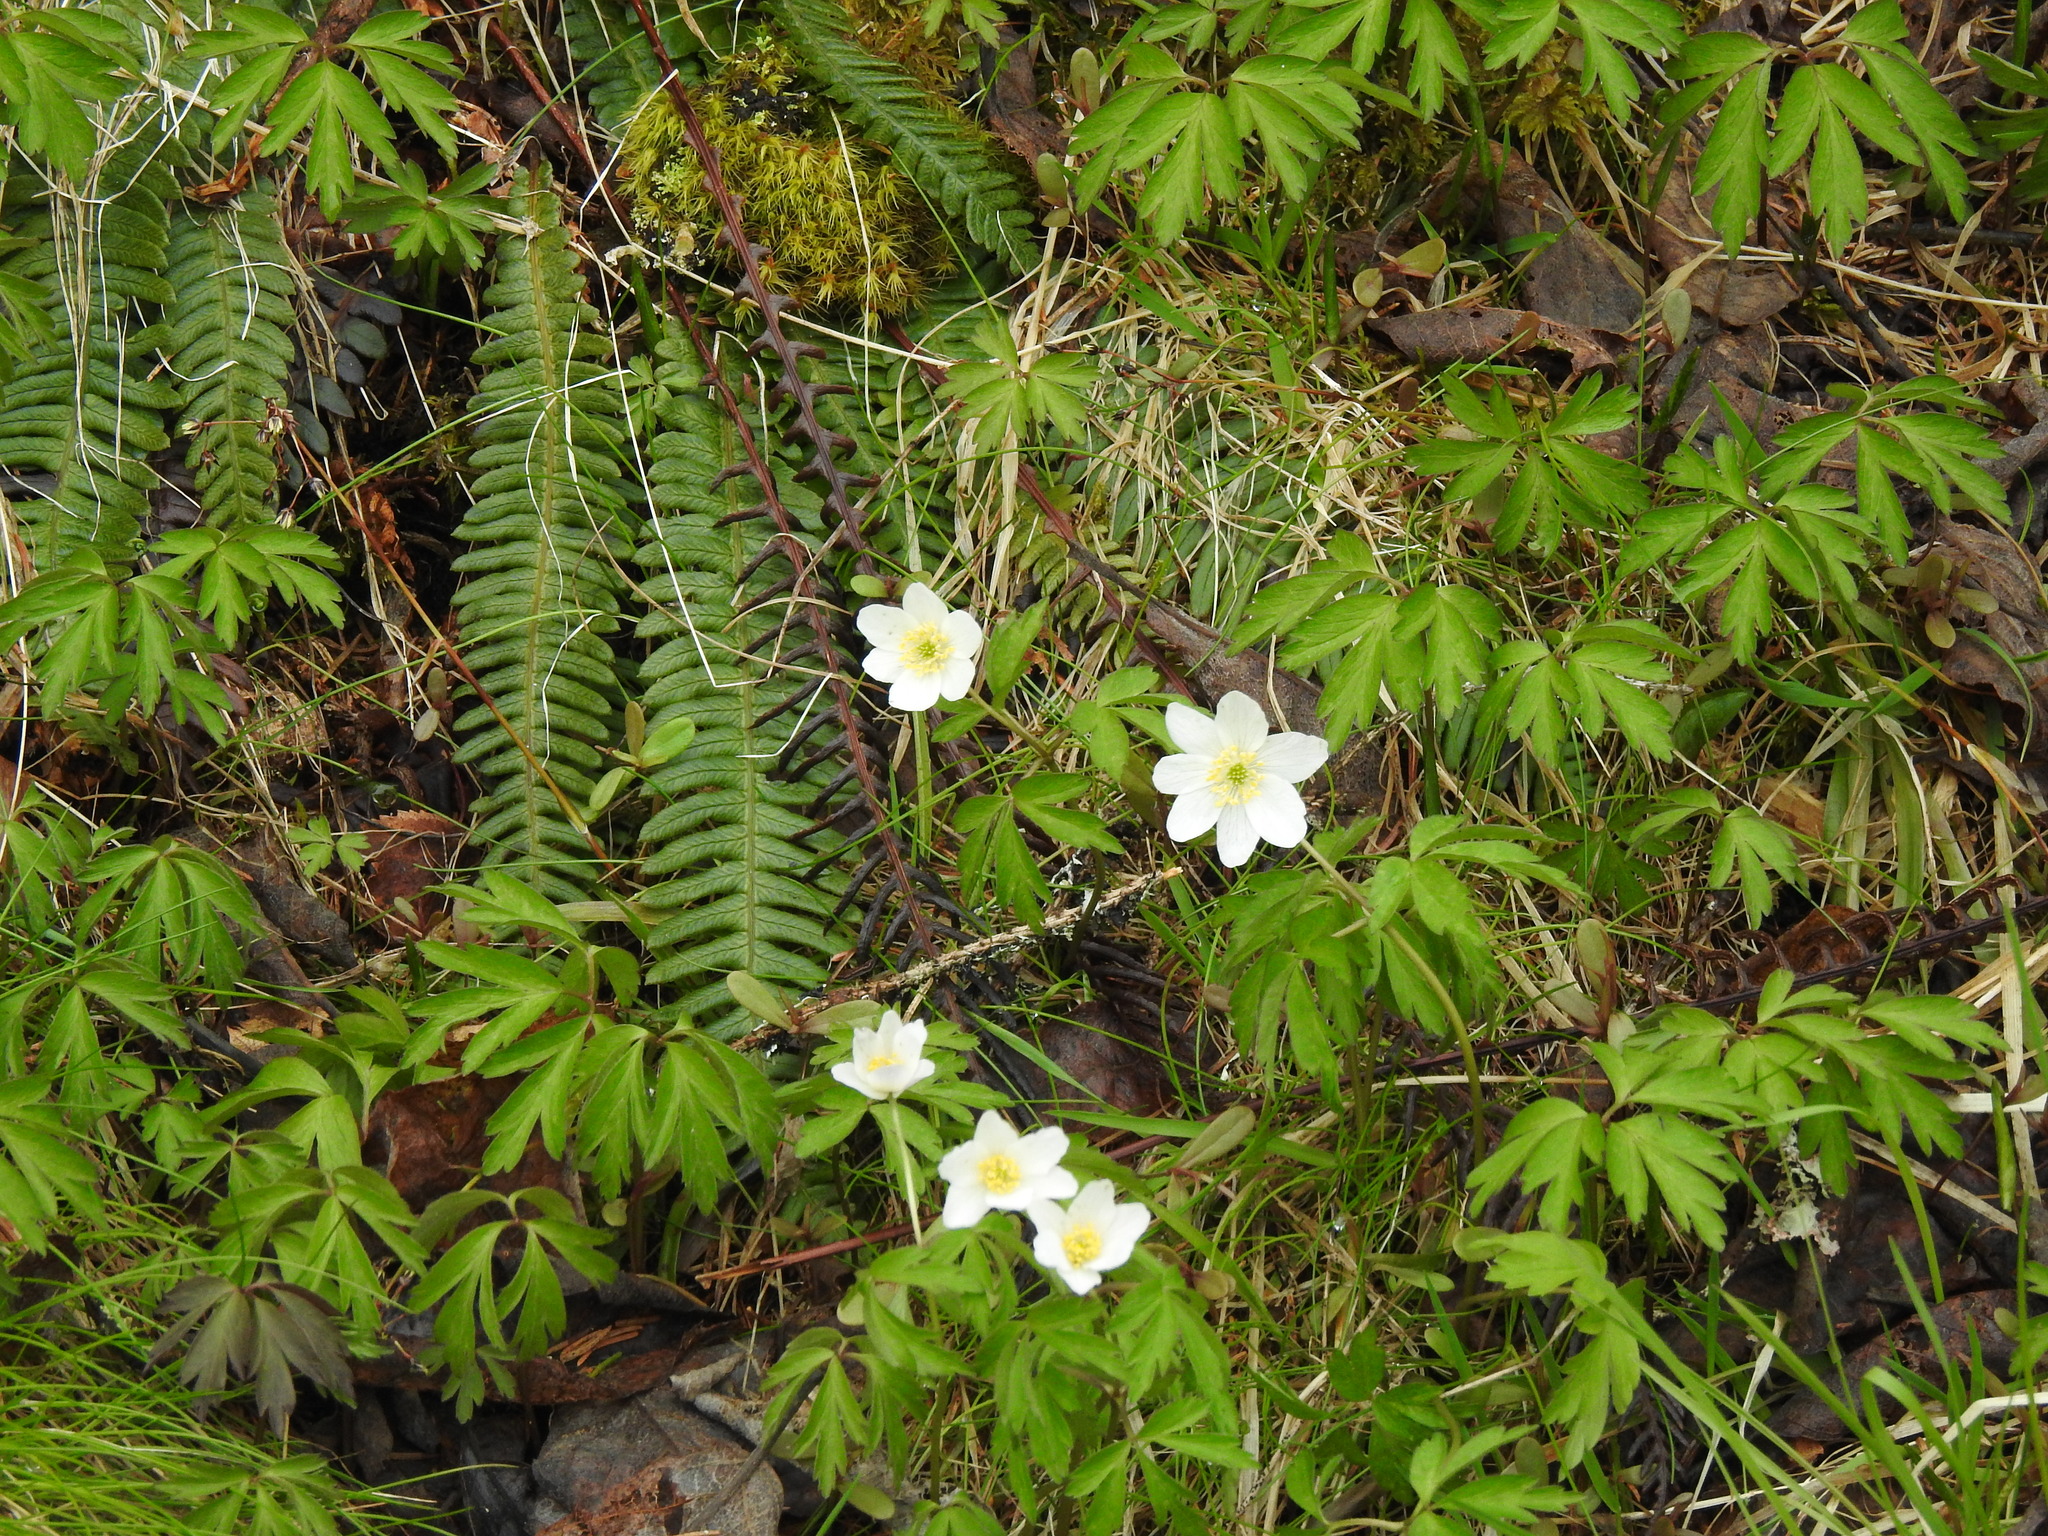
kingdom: Plantae
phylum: Tracheophyta
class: Magnoliopsida
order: Ranunculales
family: Ranunculaceae
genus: Anemone
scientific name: Anemone nemorosa
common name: Wood anemone
